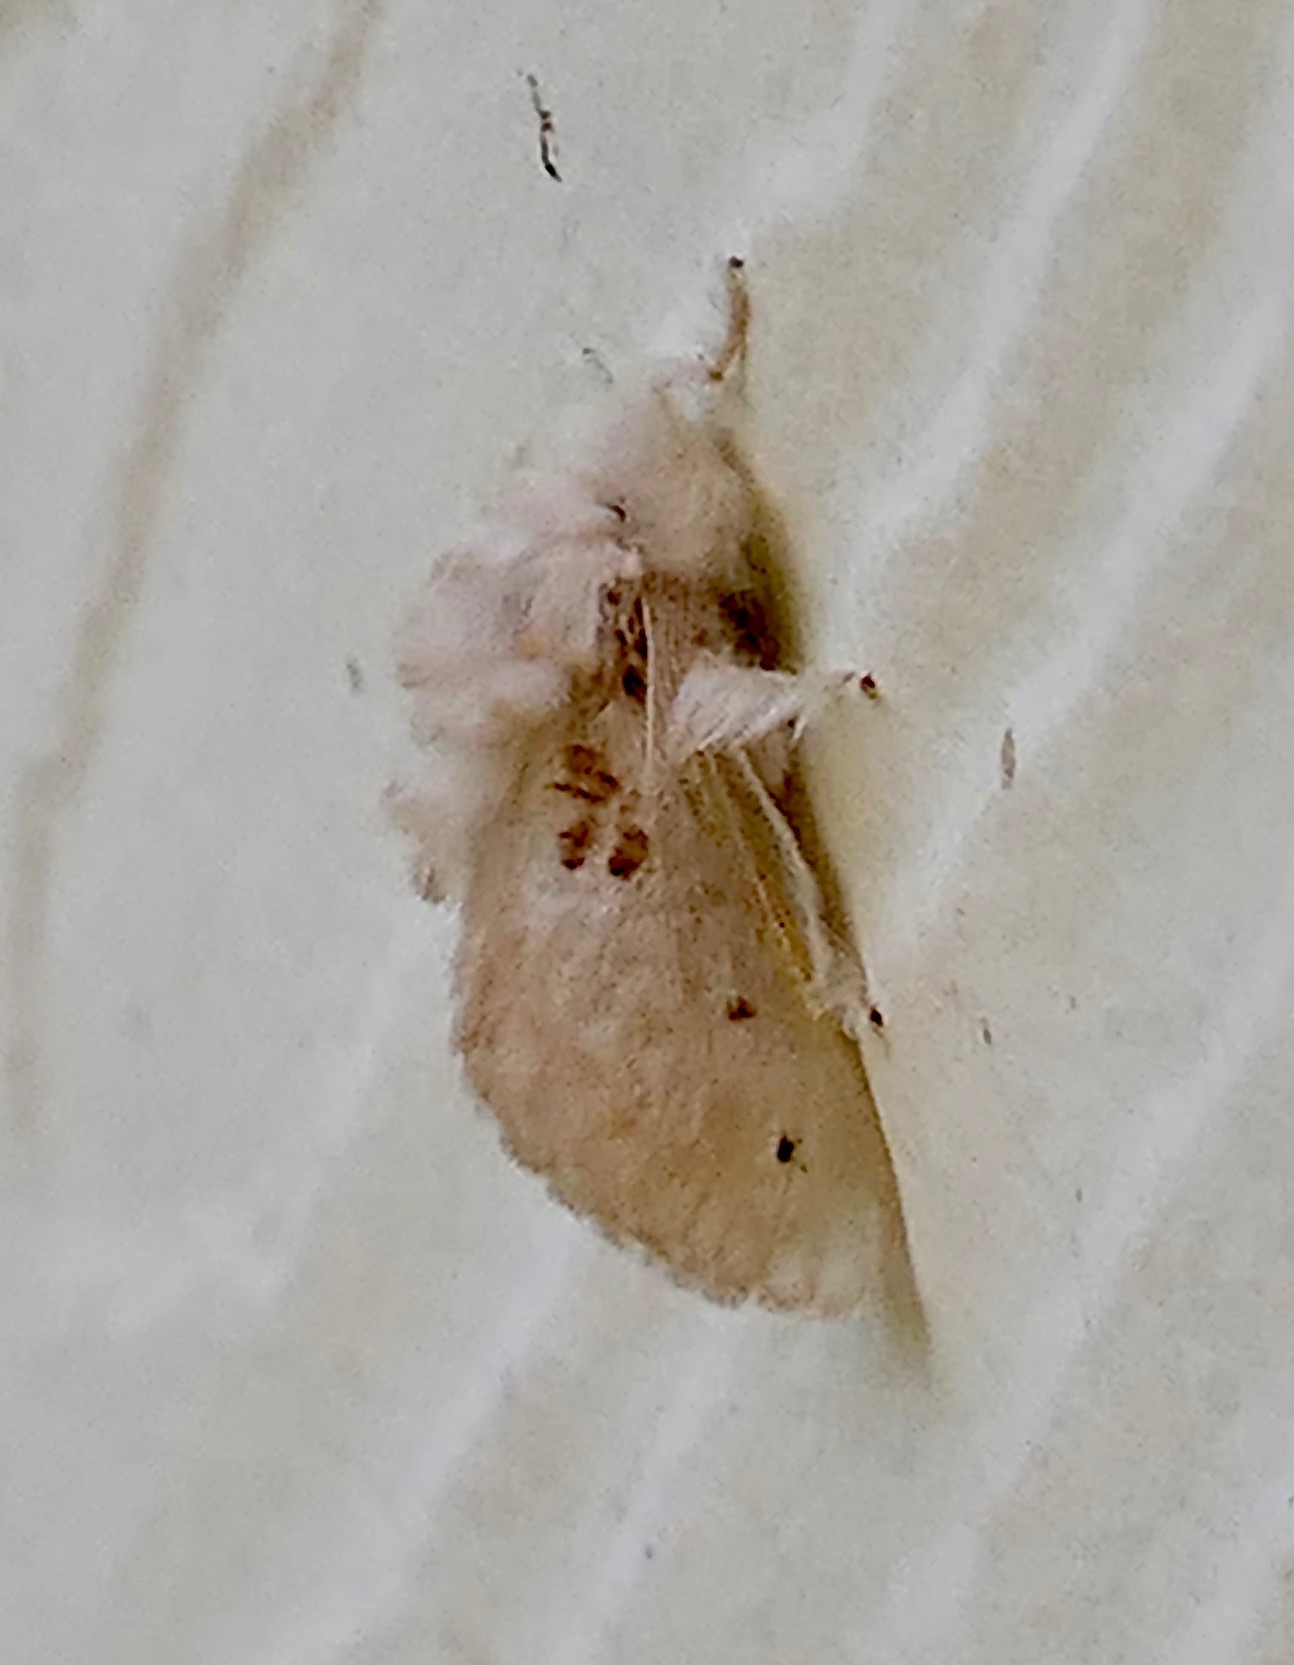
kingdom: Animalia
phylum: Arthropoda
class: Insecta
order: Lepidoptera
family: Megalopygidae
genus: Megalopyge
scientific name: Megalopyge lapena
